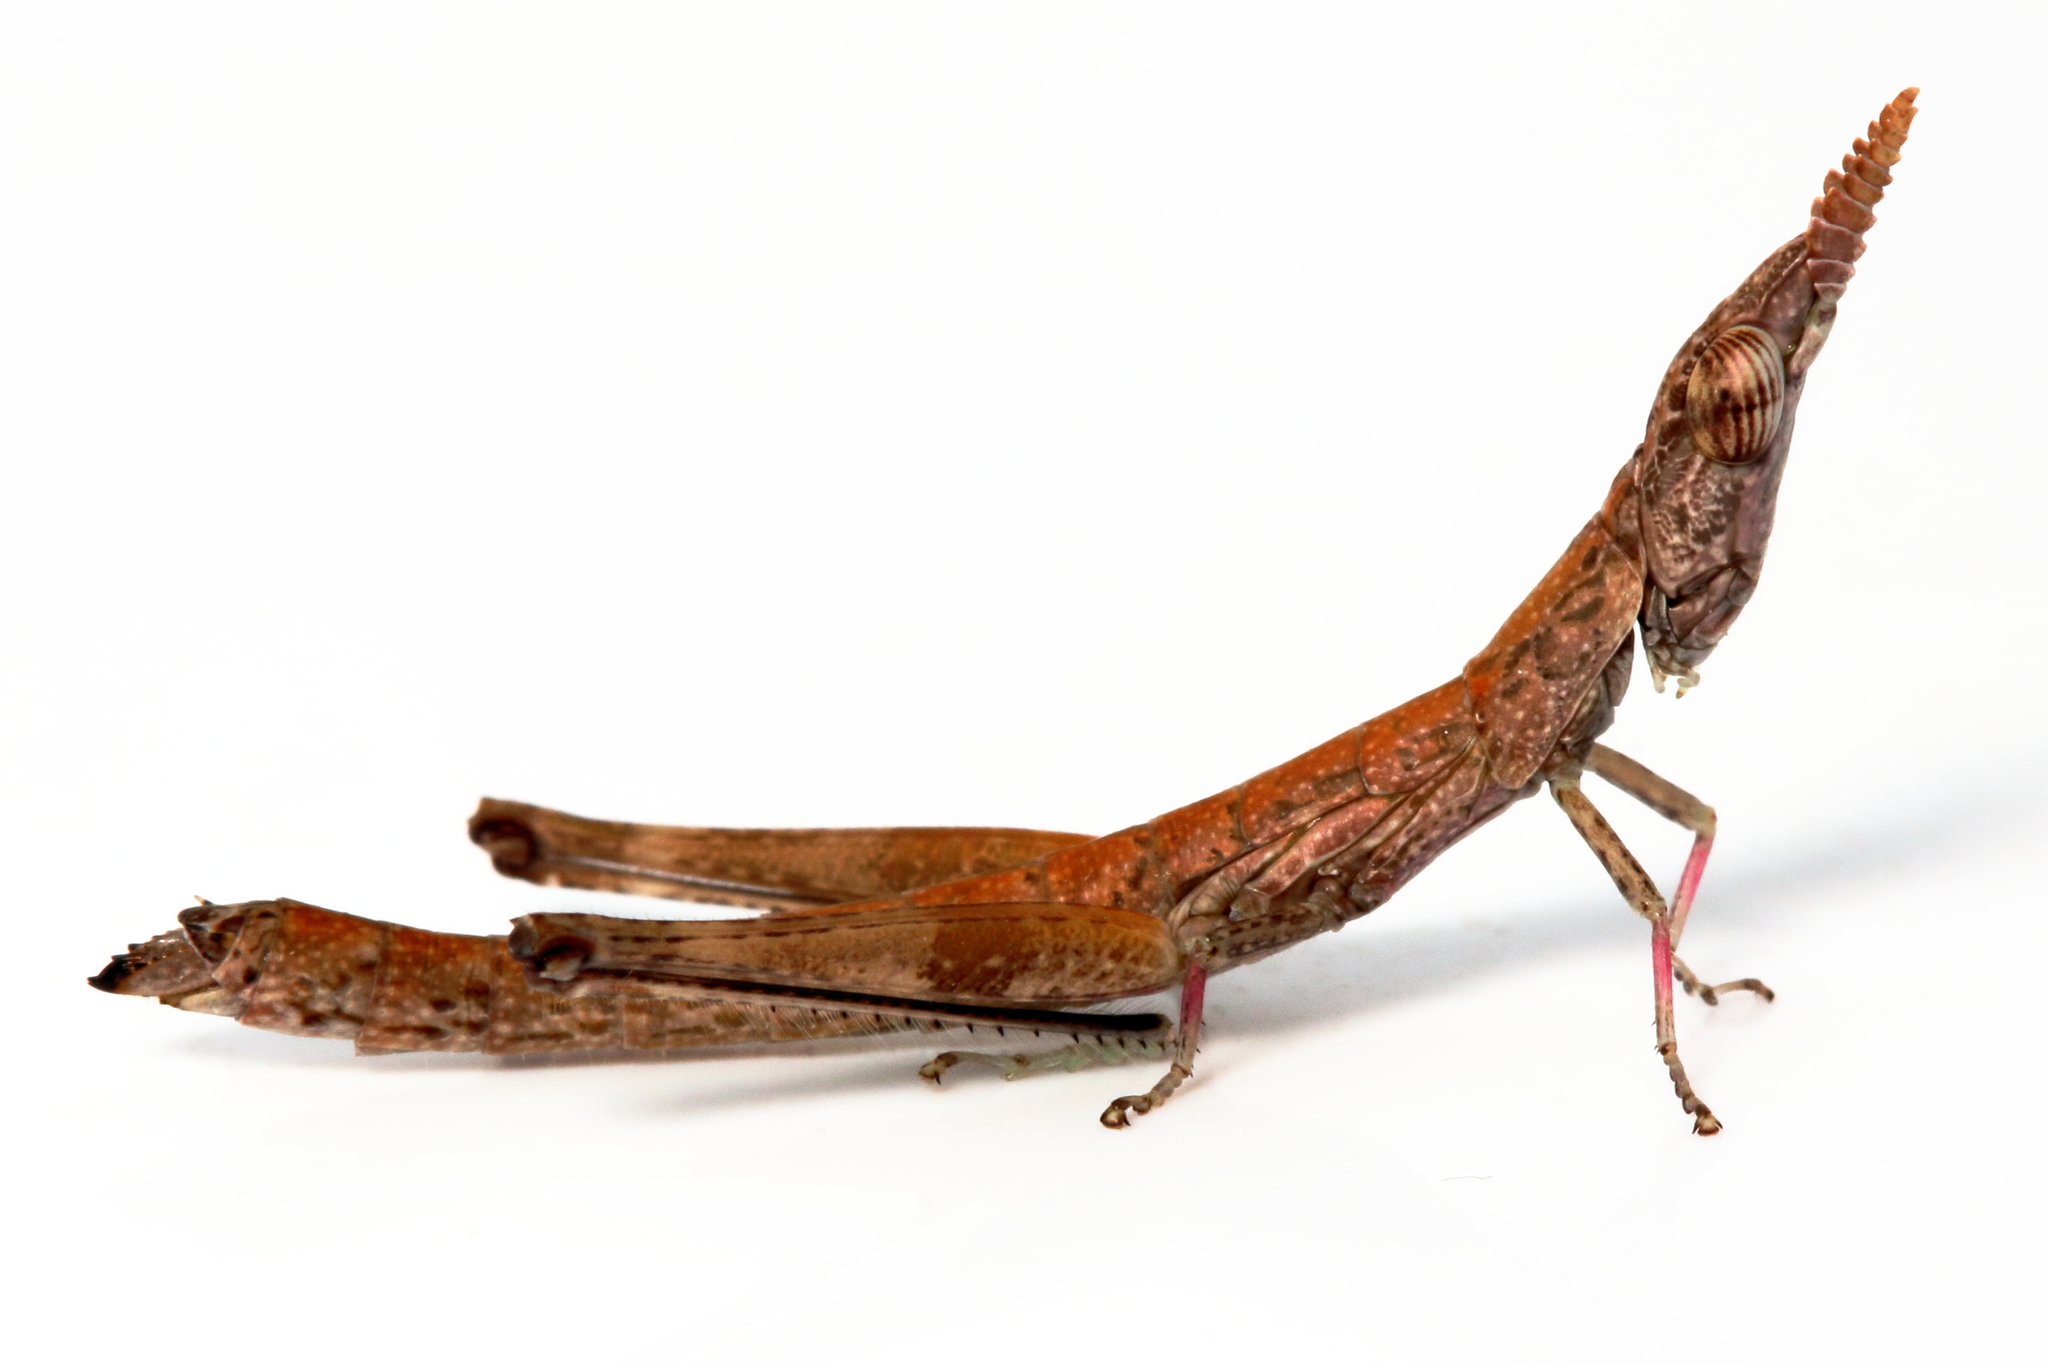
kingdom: Animalia
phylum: Arthropoda
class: Insecta
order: Orthoptera
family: Morabidae
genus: Micromeeka
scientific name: Micromeeka minuta
